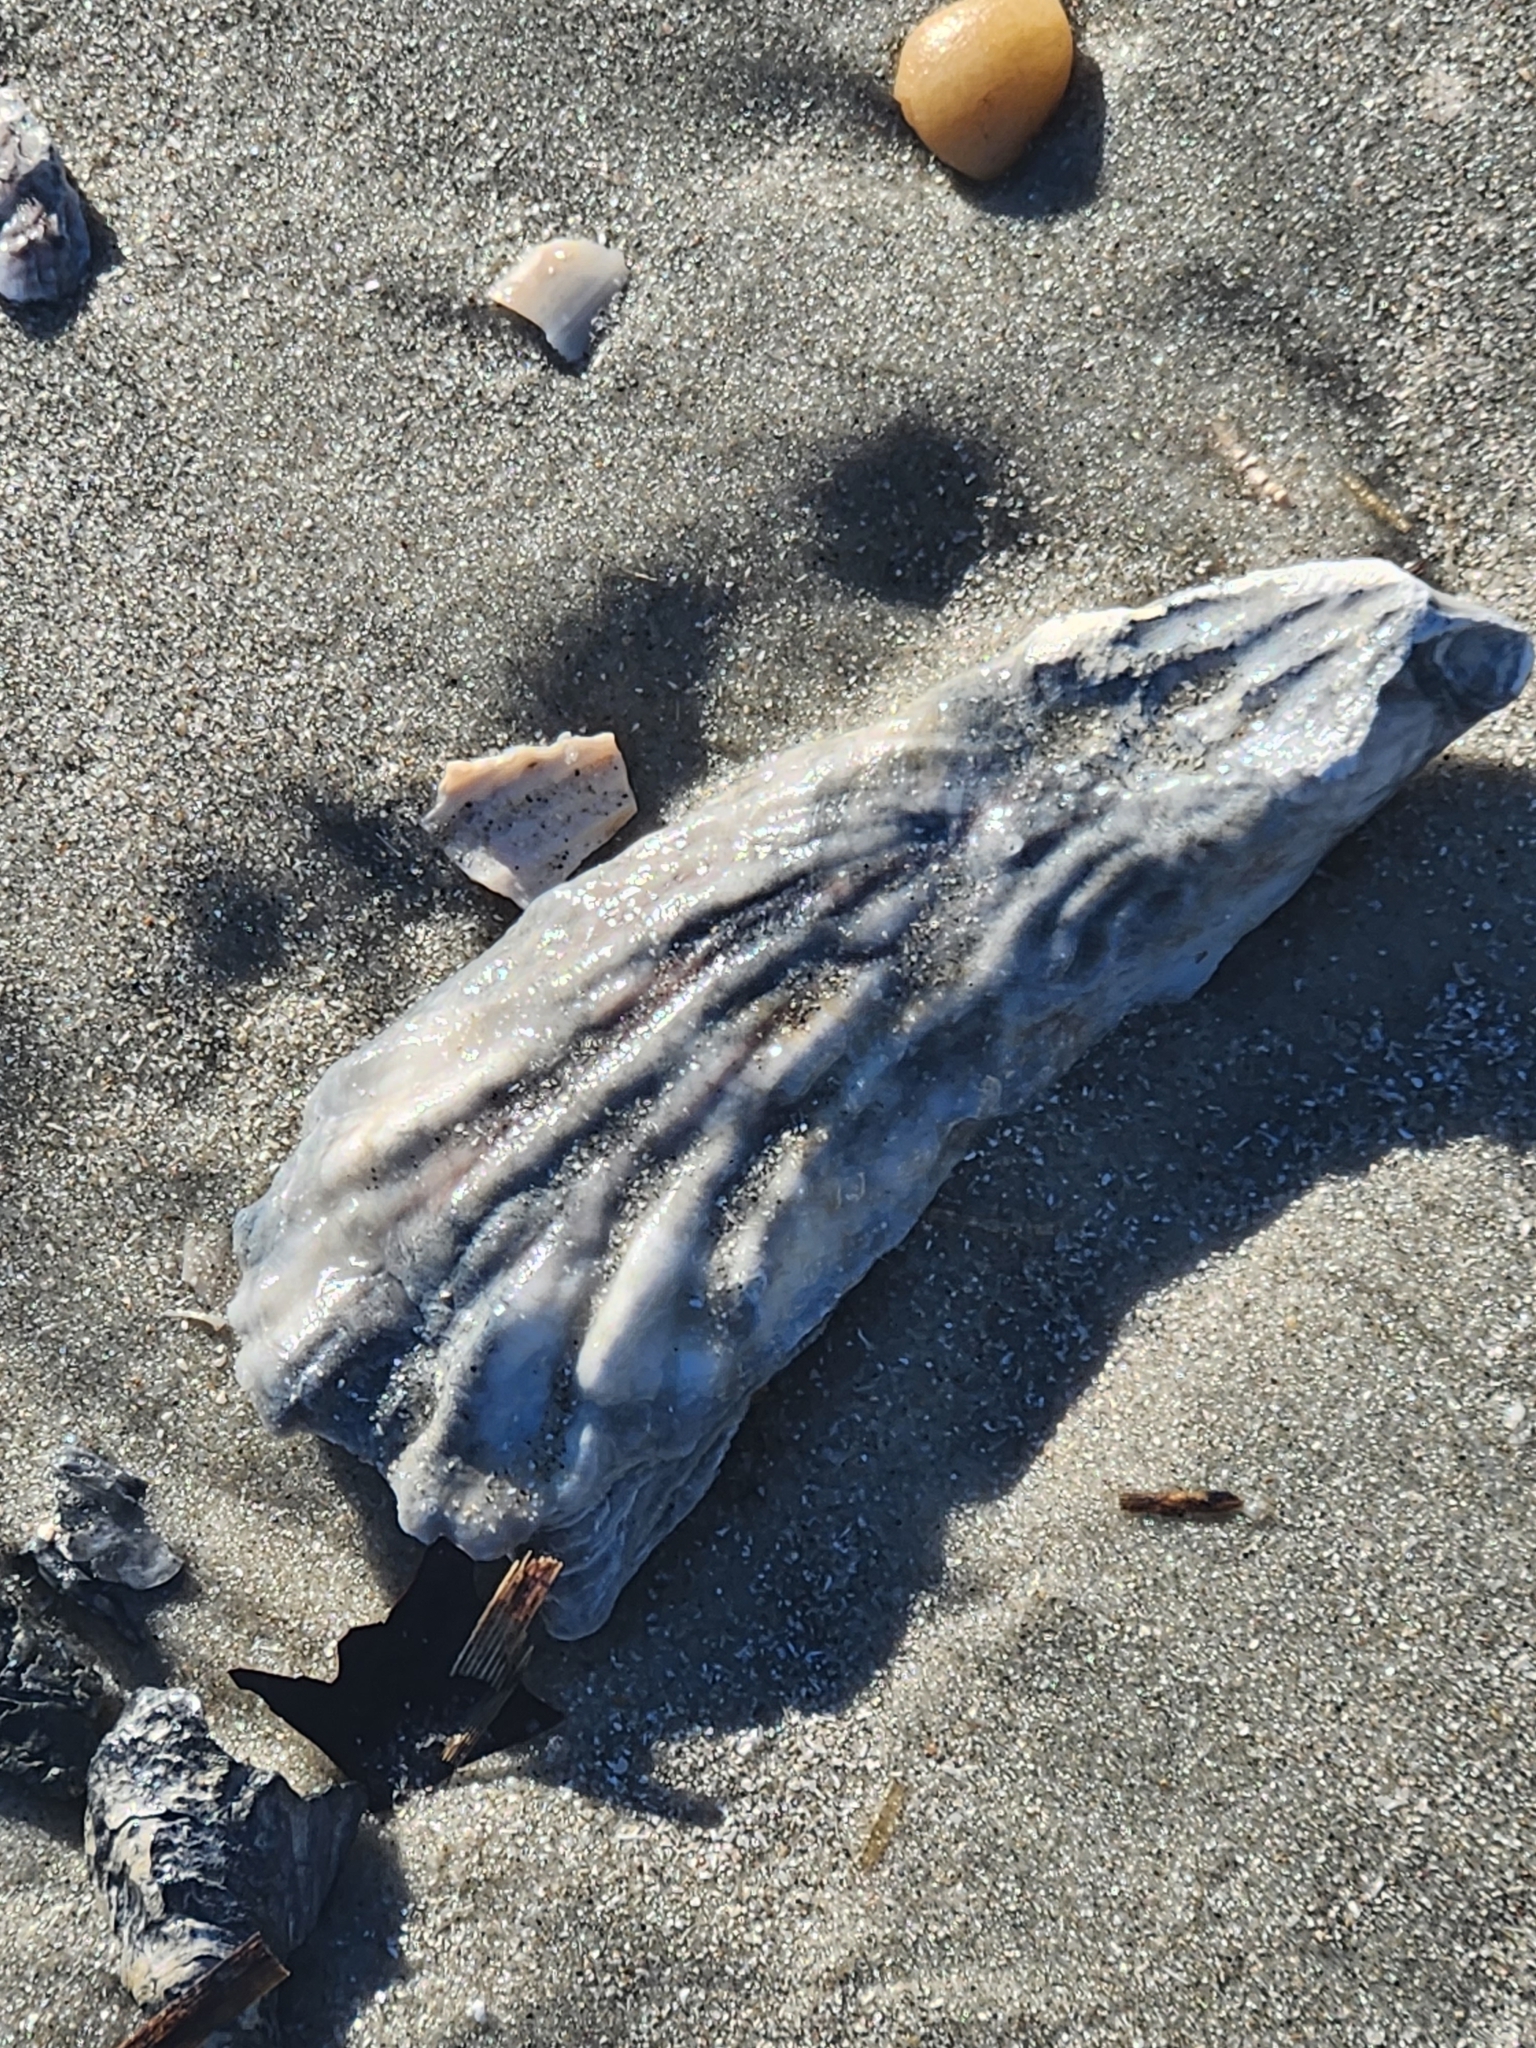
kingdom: Animalia
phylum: Mollusca
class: Bivalvia
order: Ostreida
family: Ostreidae
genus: Crassostrea
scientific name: Crassostrea virginica
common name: American oyster
